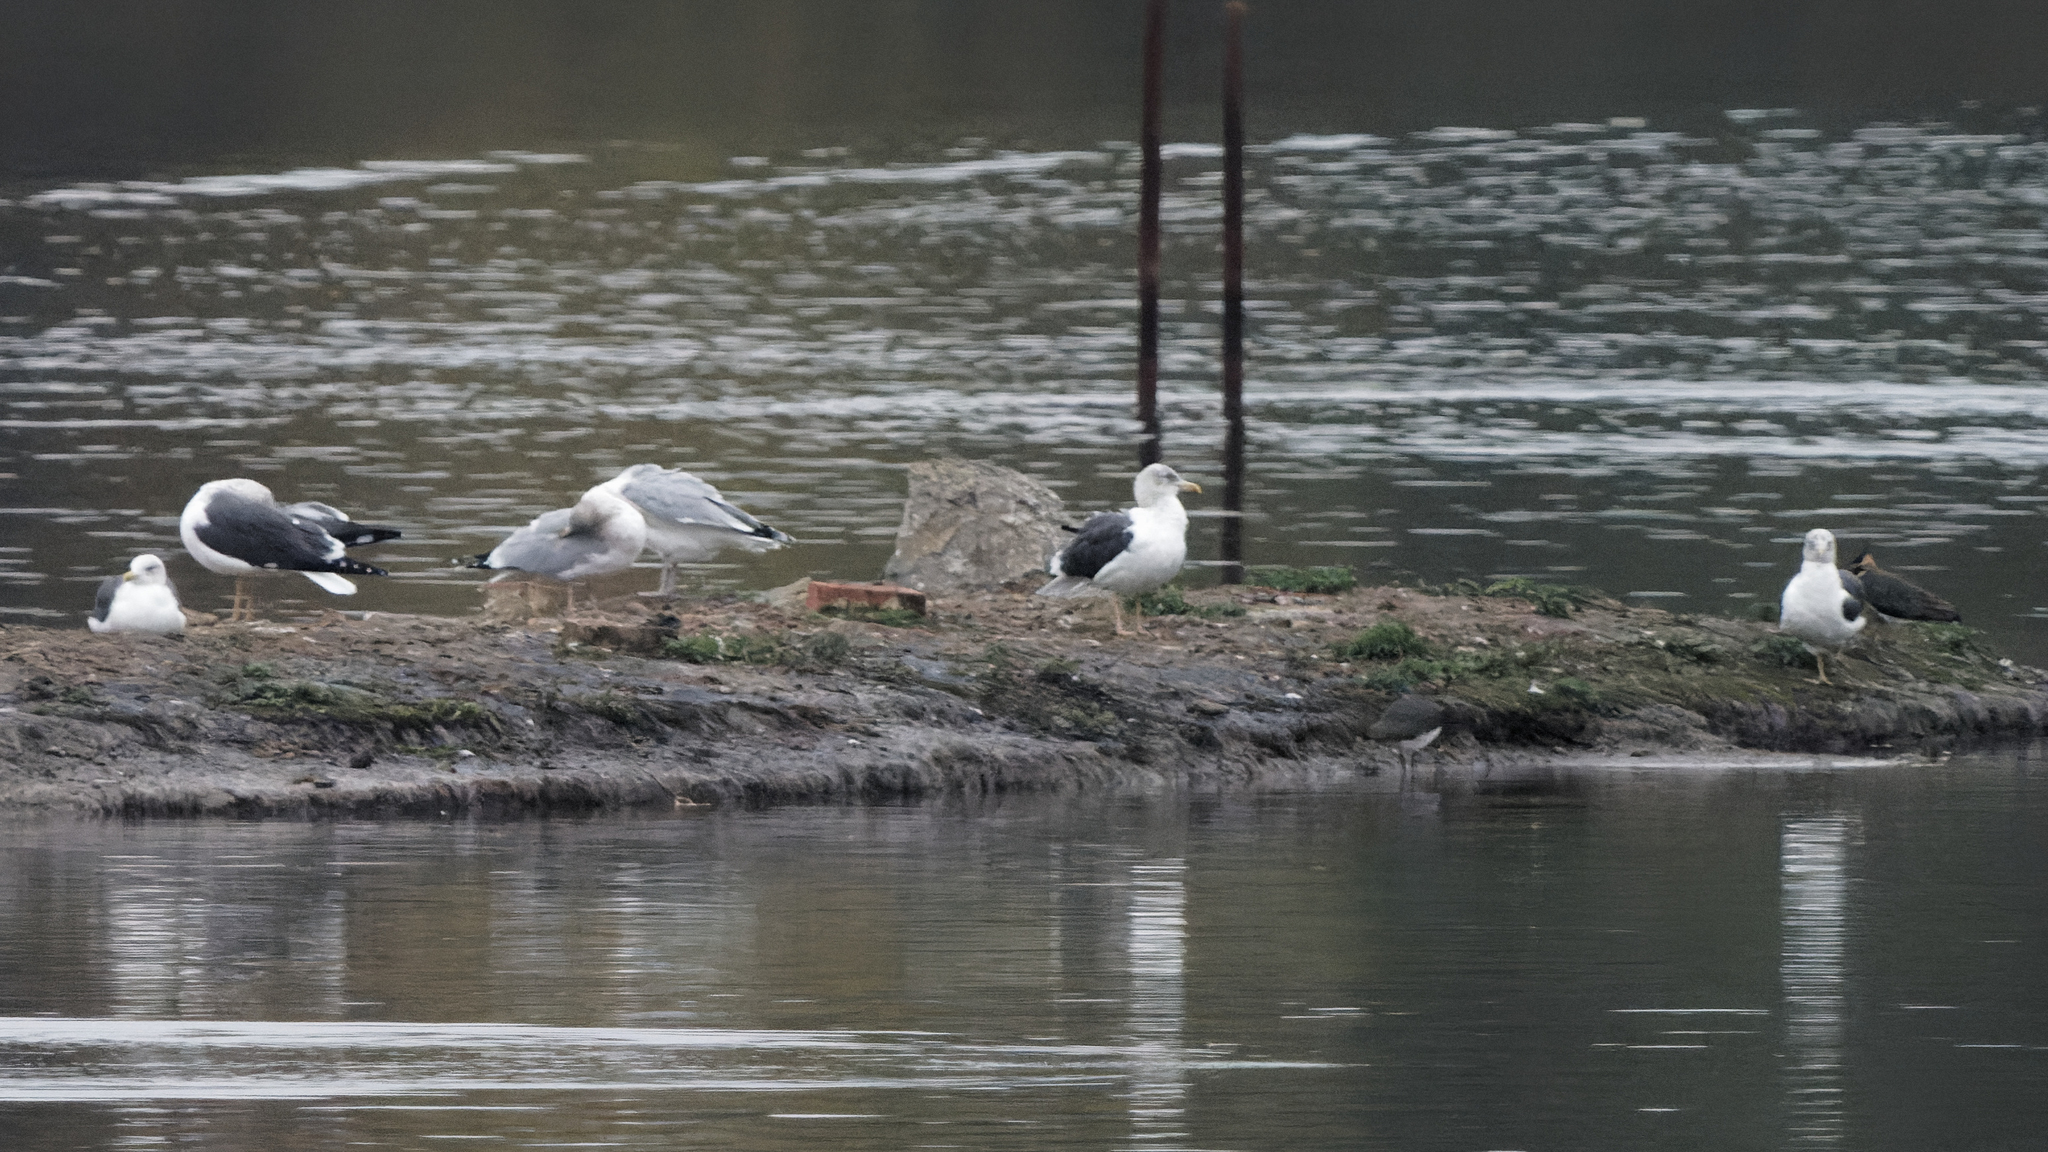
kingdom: Animalia
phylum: Chordata
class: Aves
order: Charadriiformes
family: Laridae
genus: Larus
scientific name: Larus fuscus
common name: Lesser black-backed gull
